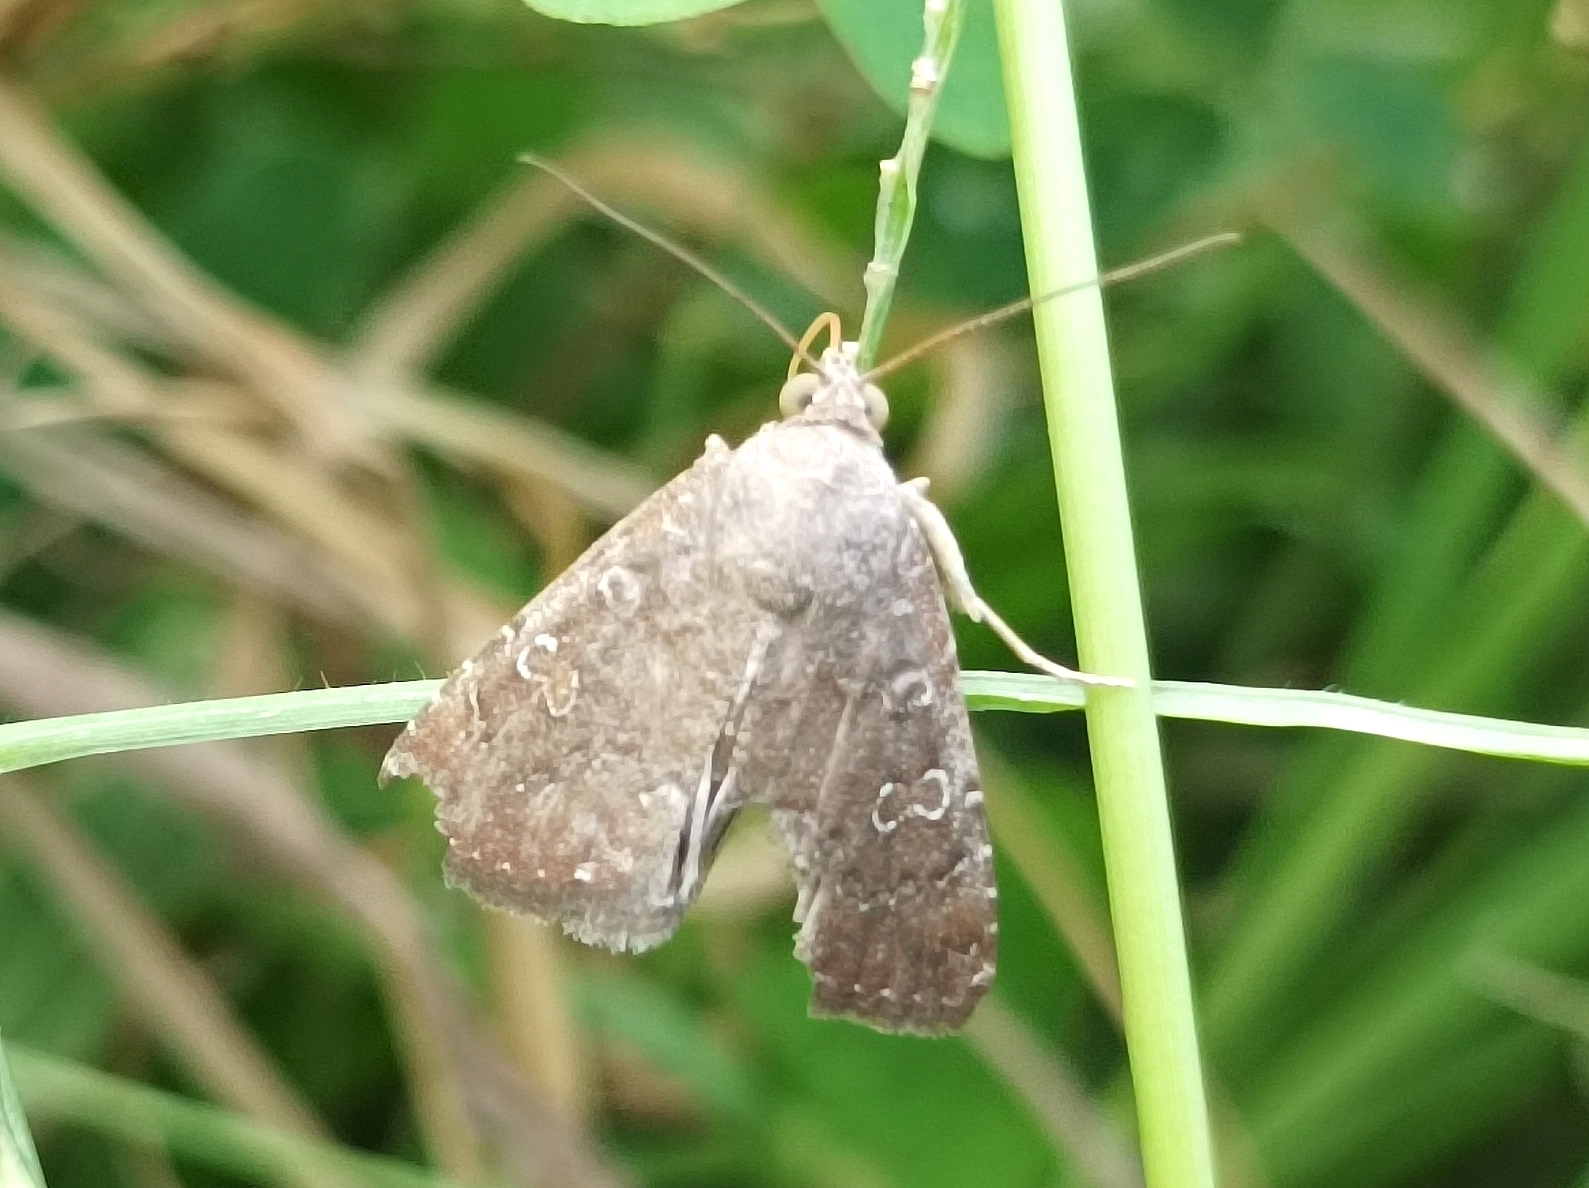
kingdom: Animalia
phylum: Arthropoda
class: Insecta
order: Lepidoptera
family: Noctuidae
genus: Amyna
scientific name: Amyna axis
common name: Cutworm
